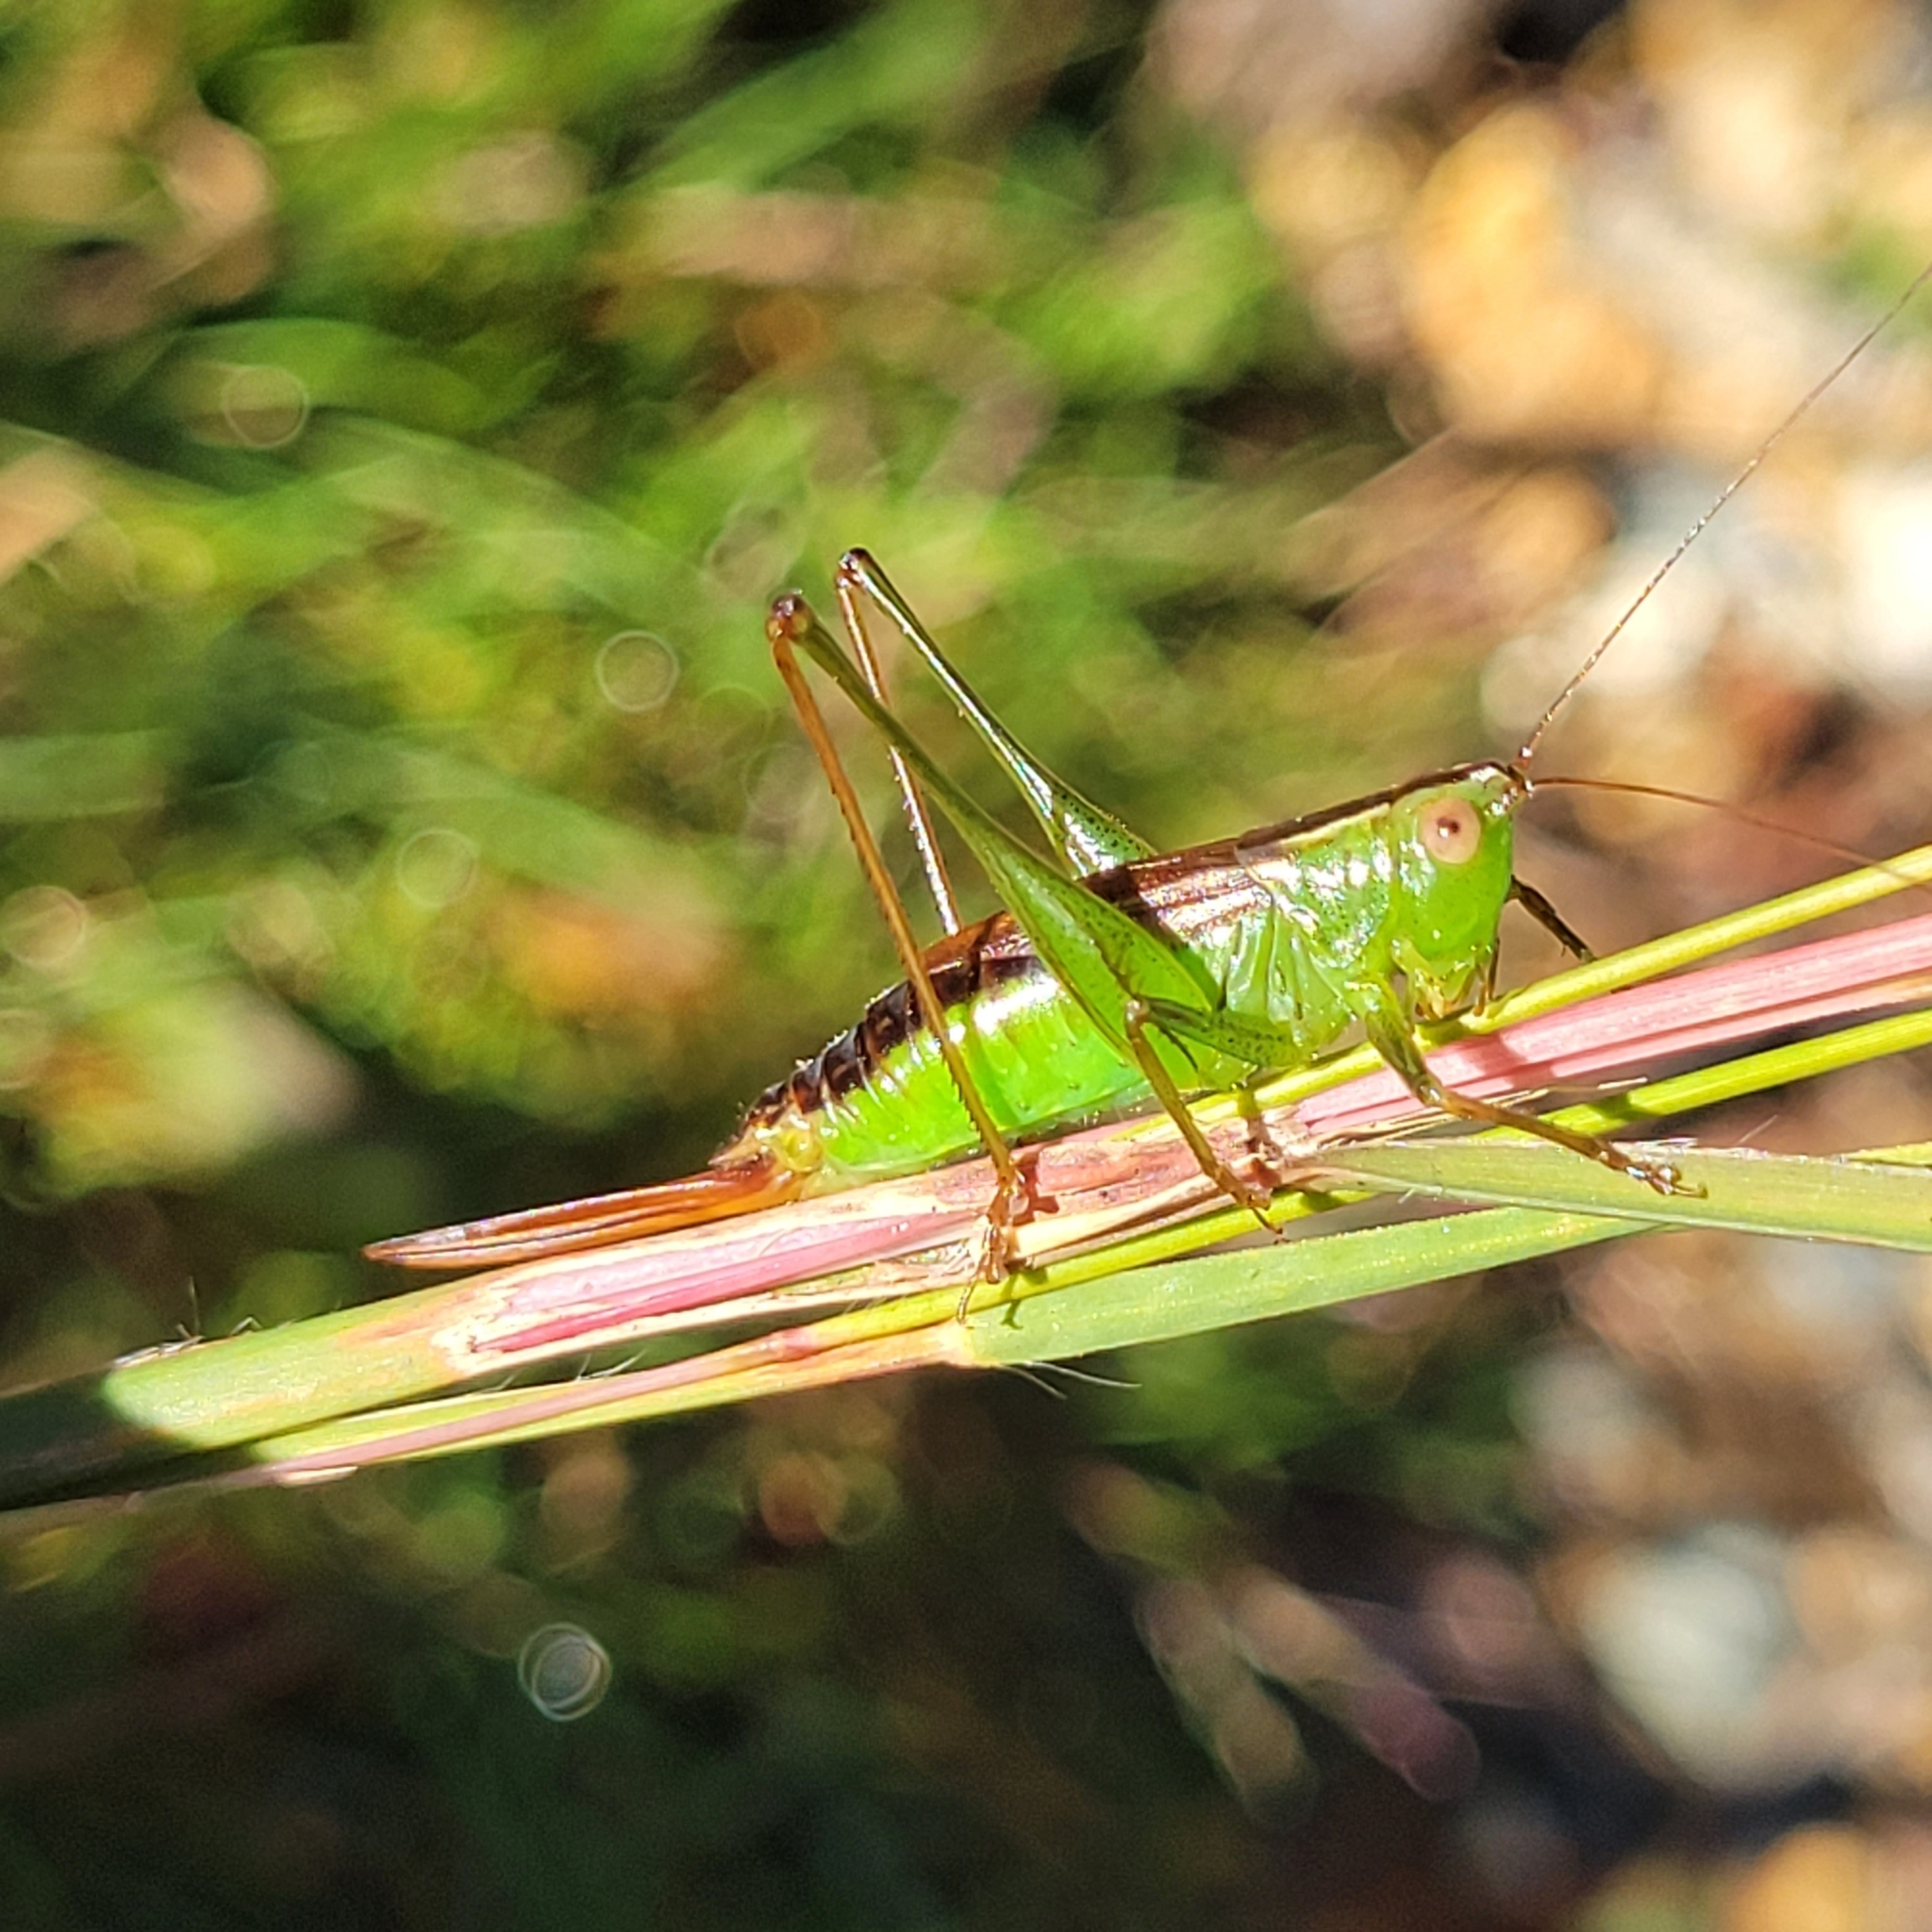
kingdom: Animalia
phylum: Arthropoda
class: Insecta
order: Orthoptera
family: Tettigoniidae
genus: Conocephalus
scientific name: Conocephalus brevipennis
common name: Short-winged meadow katydid
